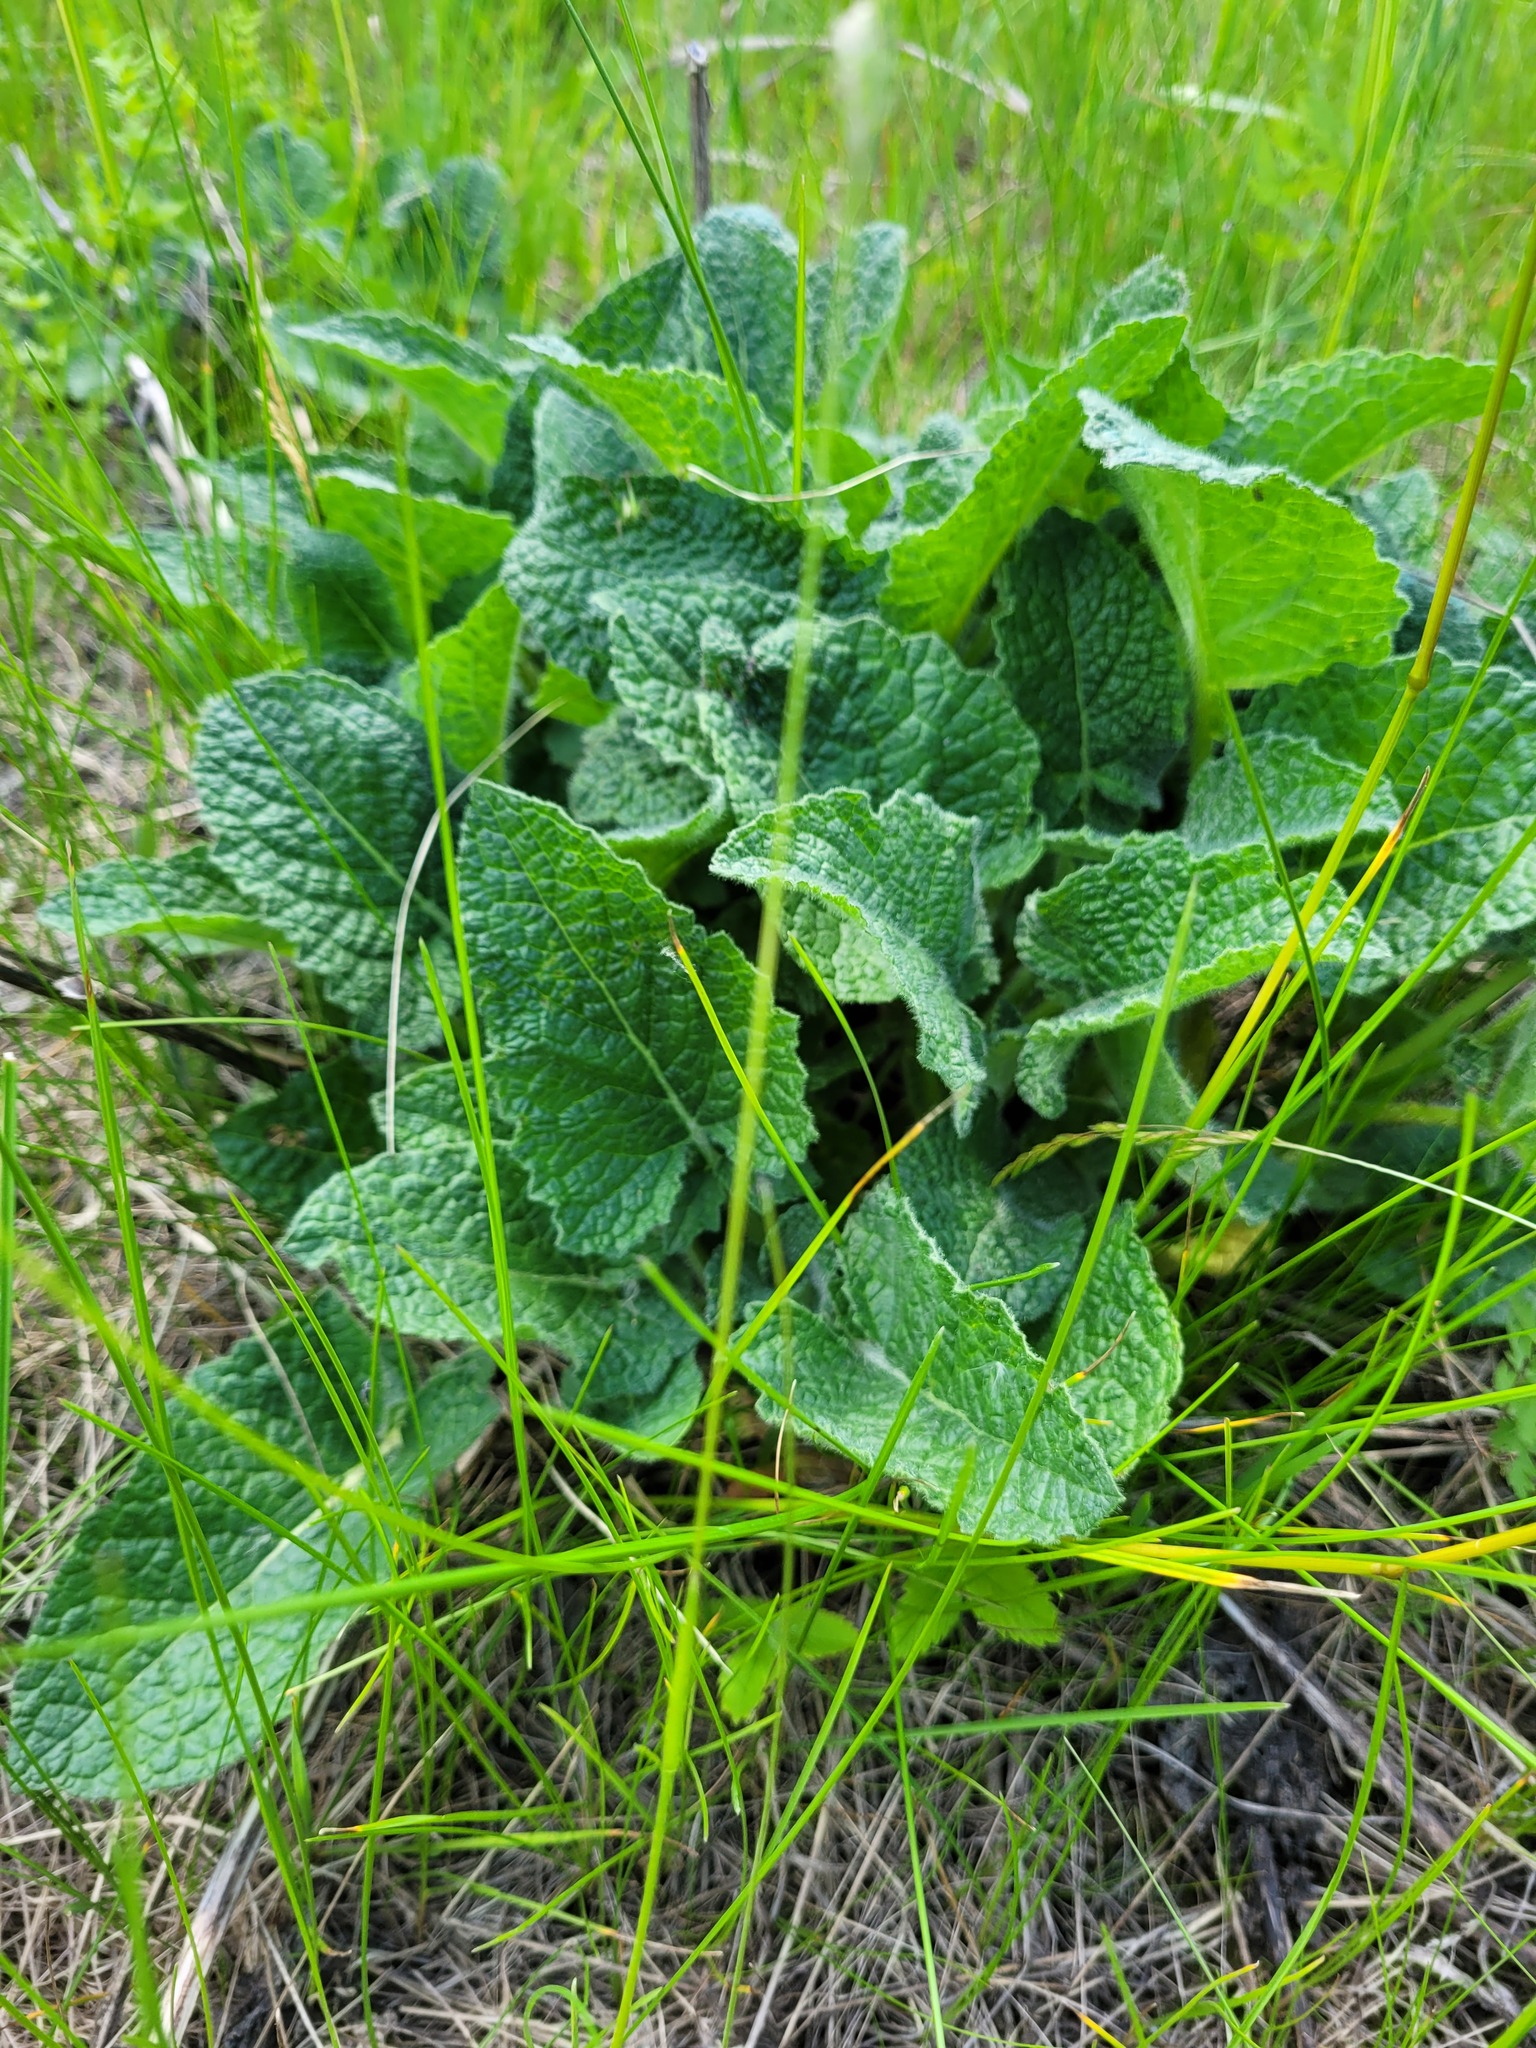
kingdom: Plantae
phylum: Tracheophyta
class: Magnoliopsida
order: Lamiales
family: Lamiaceae
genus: Salvia
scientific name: Salvia verticillata
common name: Whorled clary
